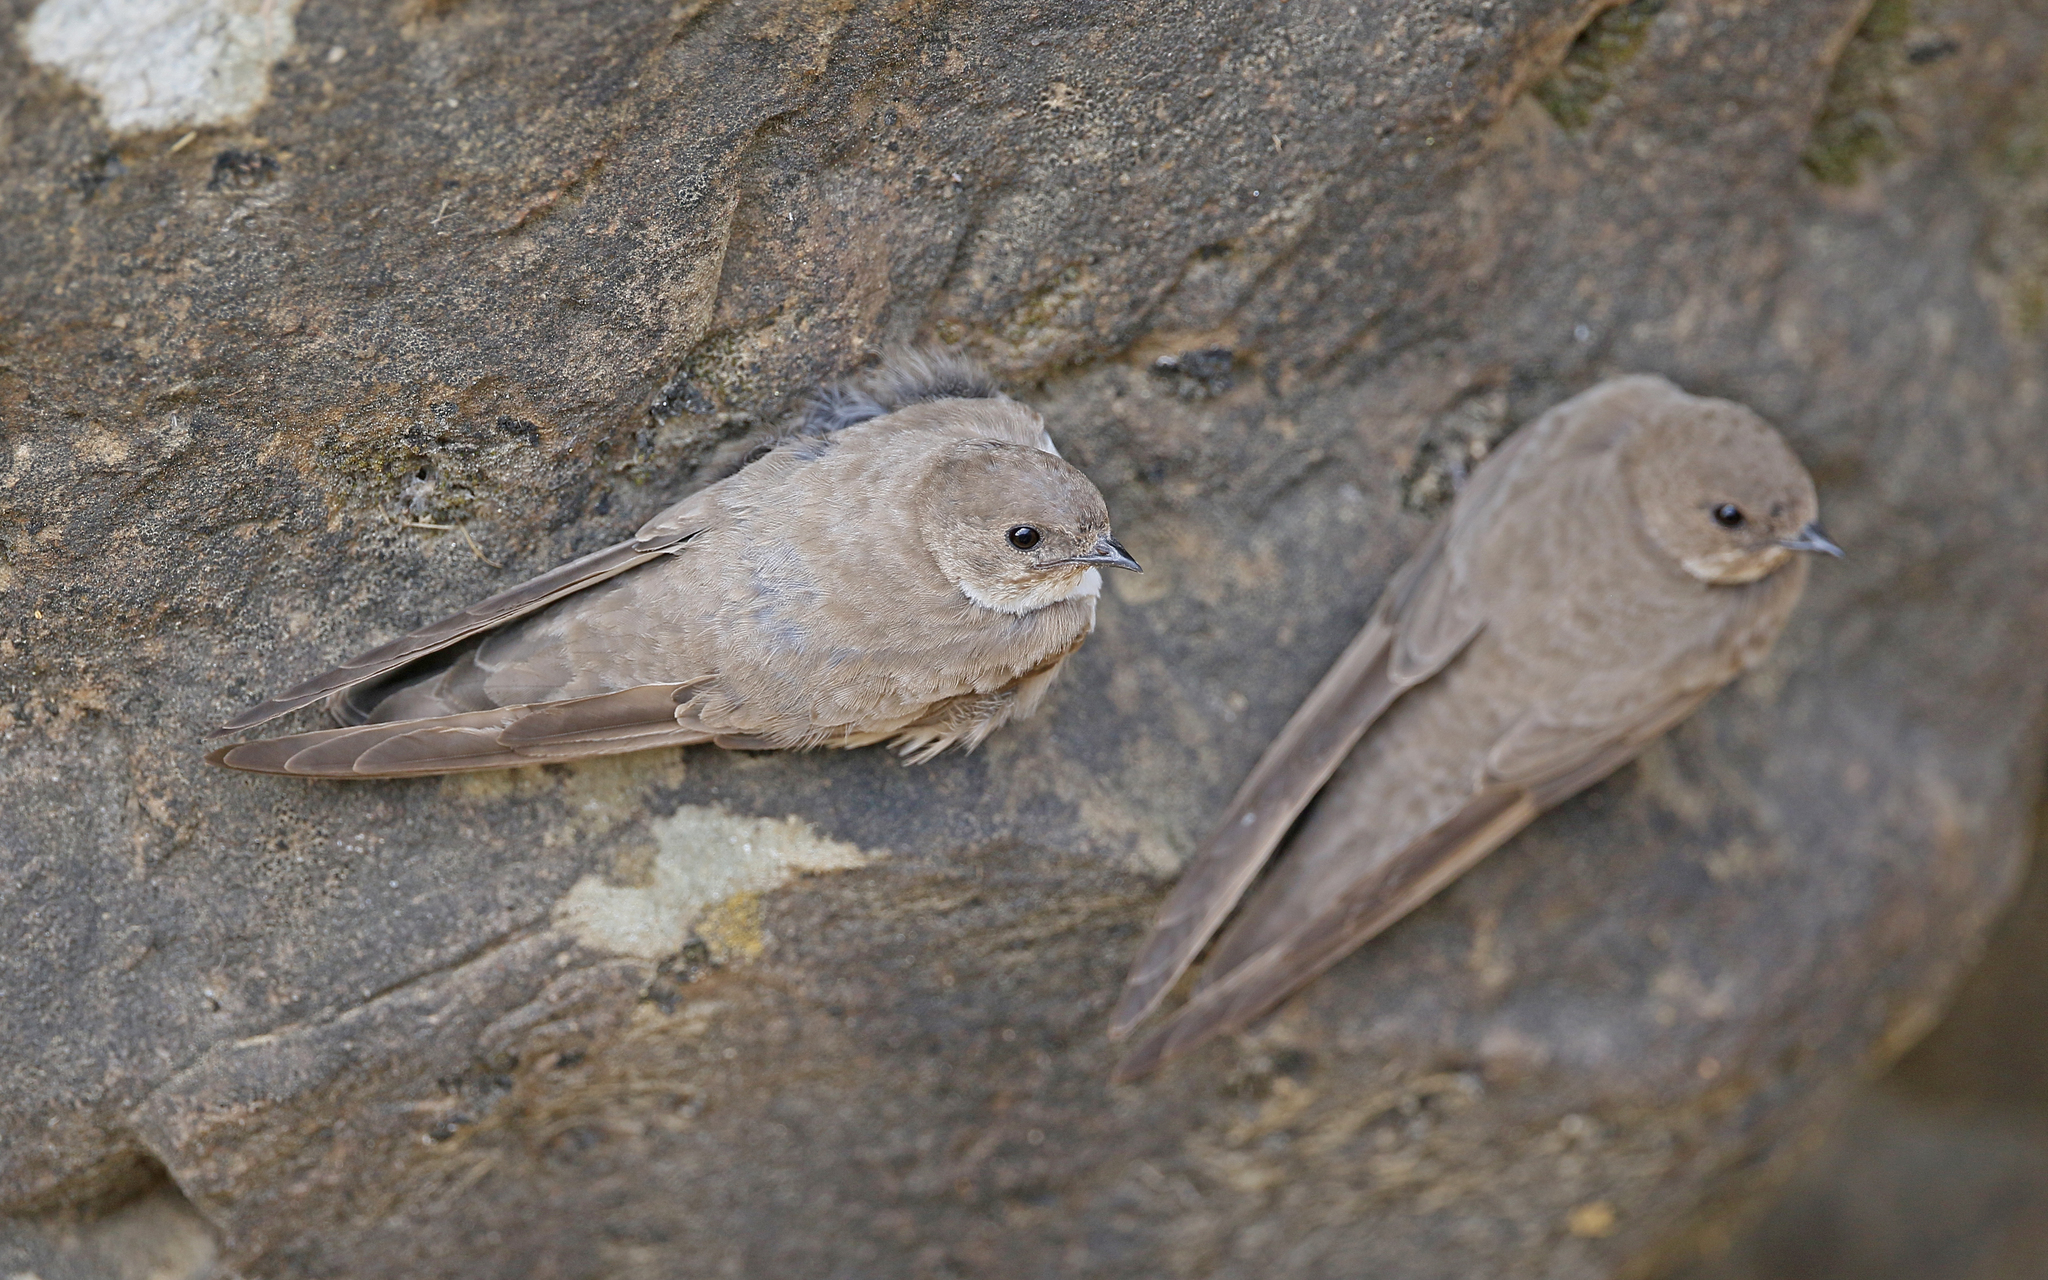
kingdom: Animalia
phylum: Chordata
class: Aves
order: Passeriformes
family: Hirundinidae
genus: Ptyonoprogne
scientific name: Ptyonoprogne rupestris
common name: Eurasian crag martin
